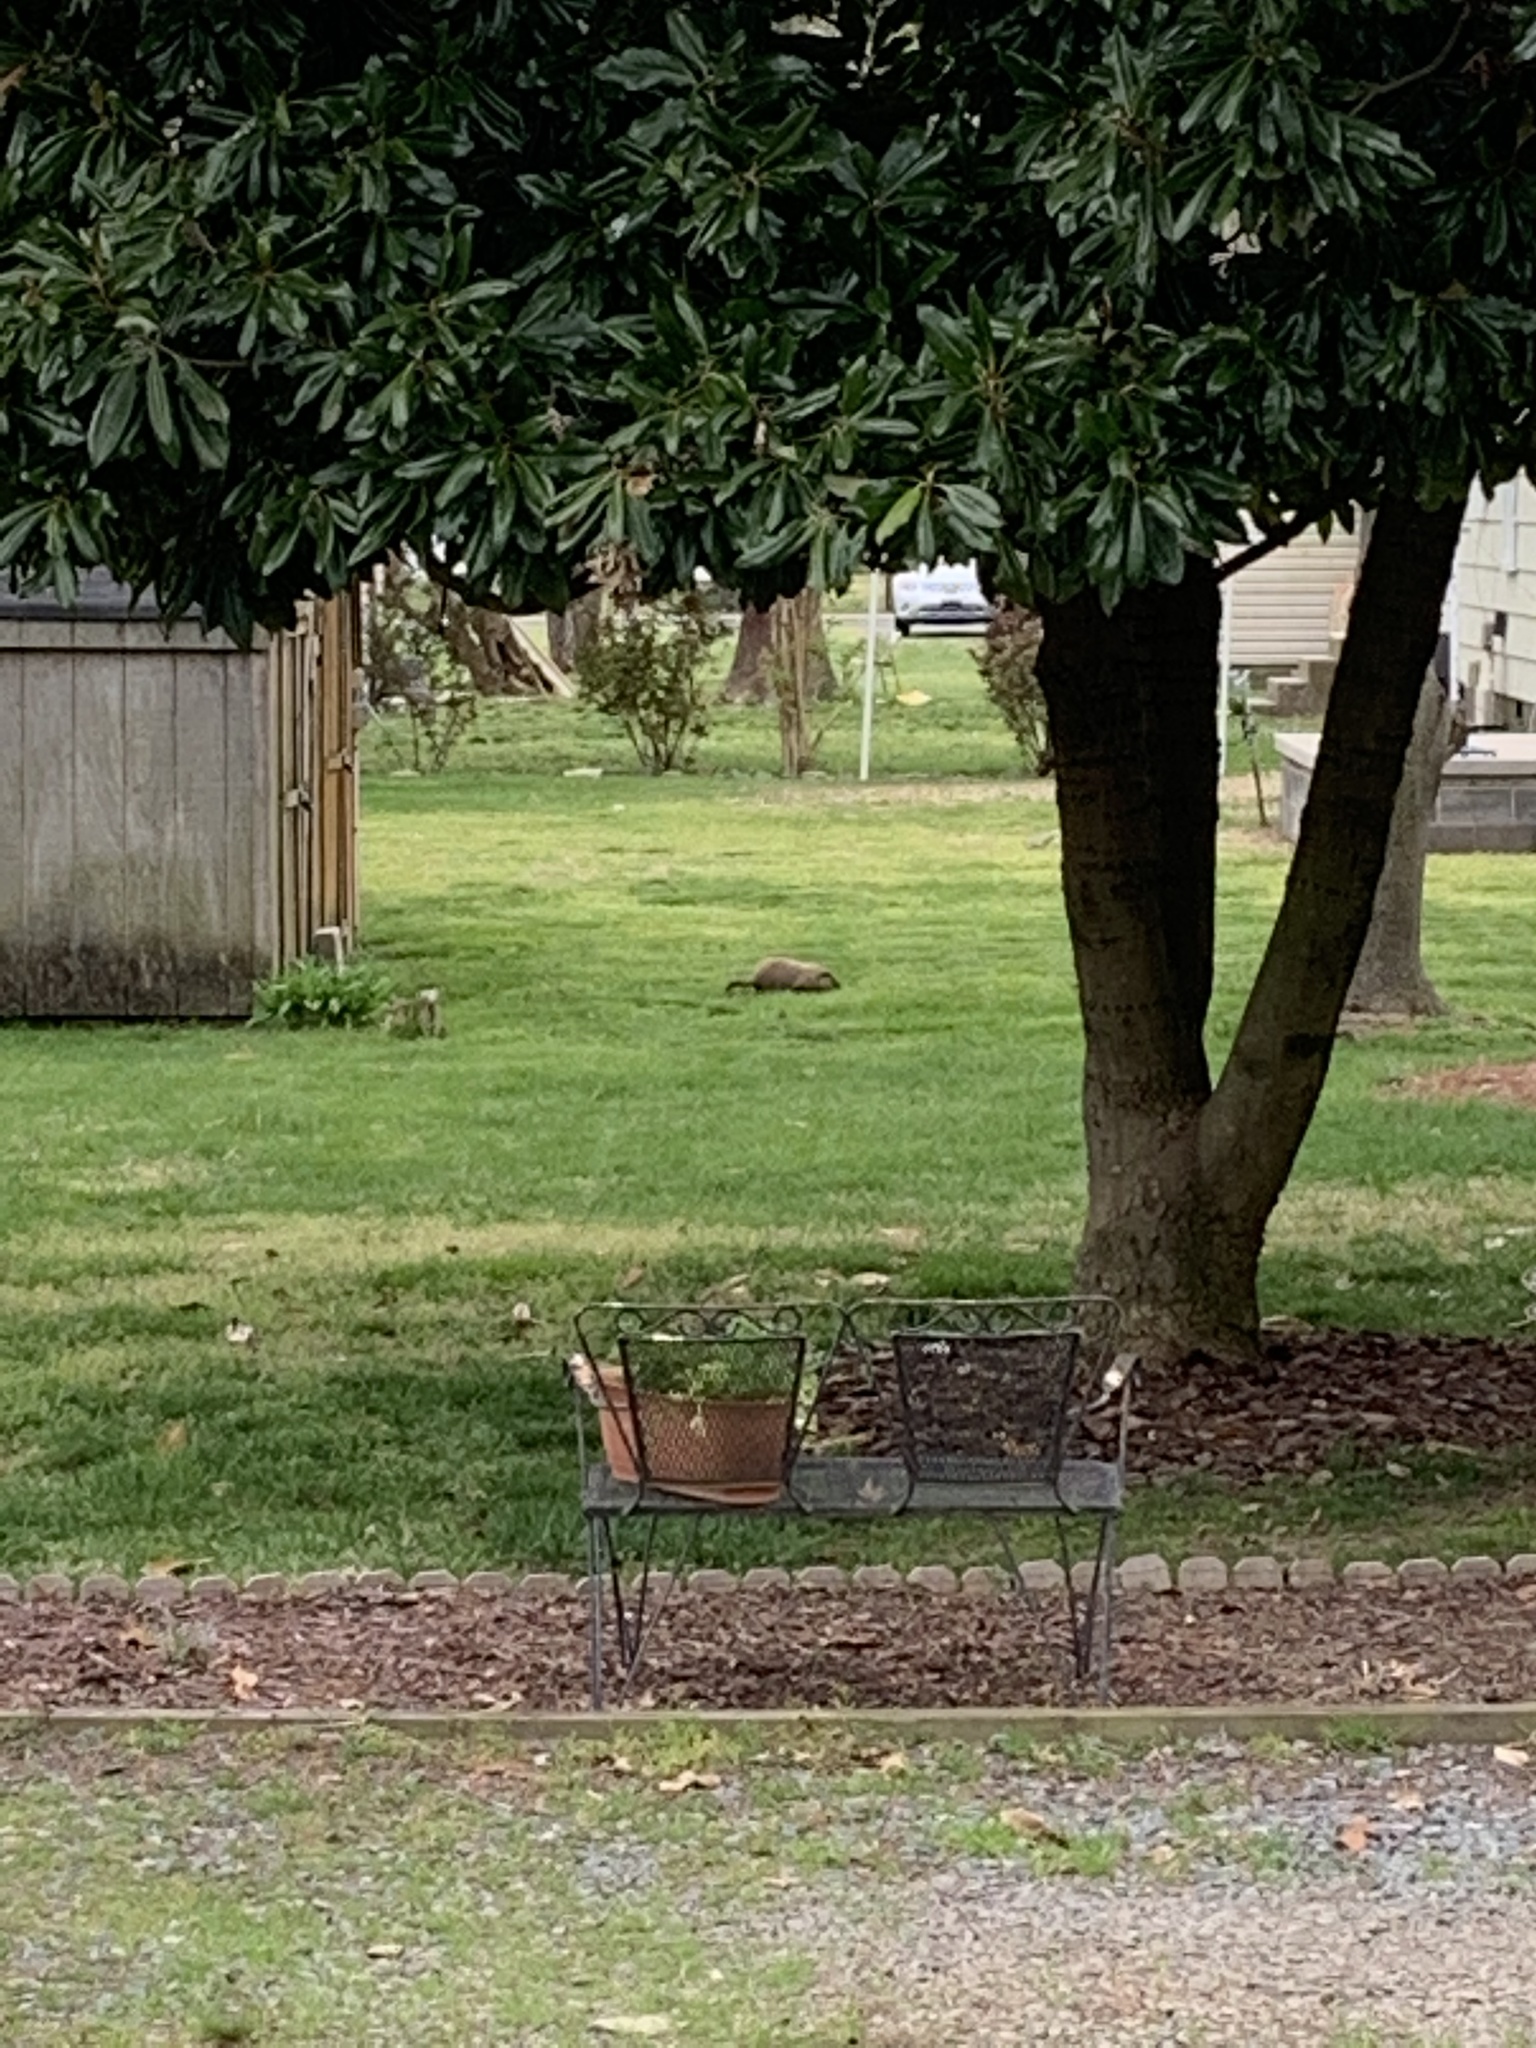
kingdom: Animalia
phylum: Chordata
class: Mammalia
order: Rodentia
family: Sciuridae
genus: Marmota
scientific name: Marmota monax
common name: Groundhog
